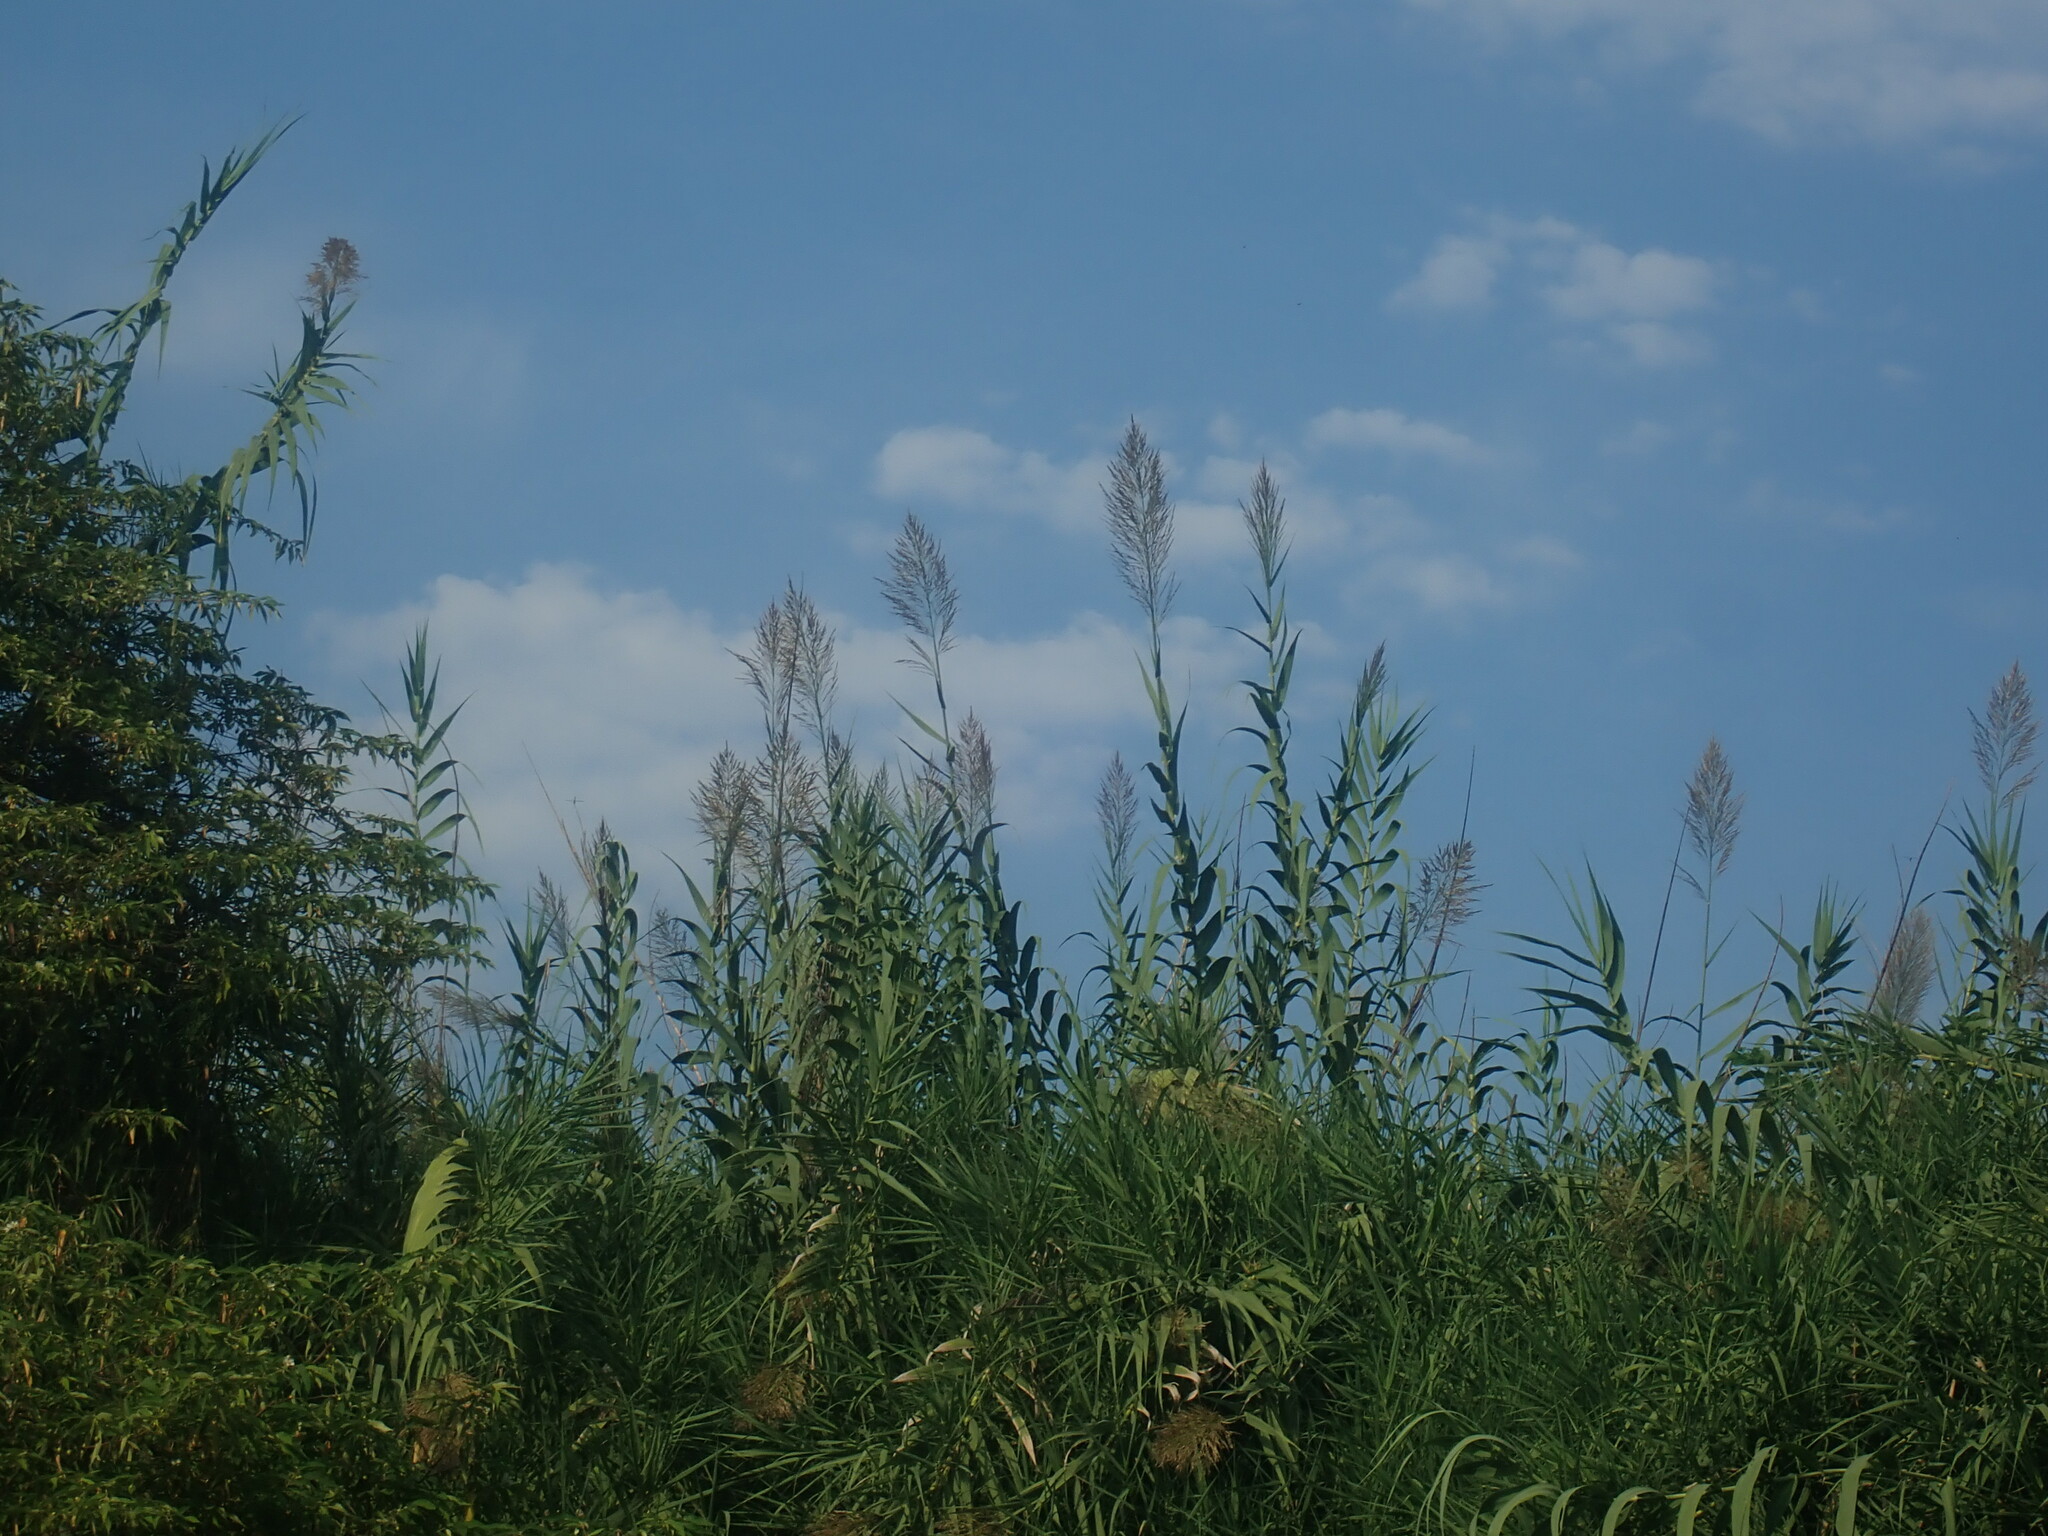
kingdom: Plantae
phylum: Tracheophyta
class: Liliopsida
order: Poales
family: Poaceae
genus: Arundo
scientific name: Arundo donax
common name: Giant reed
